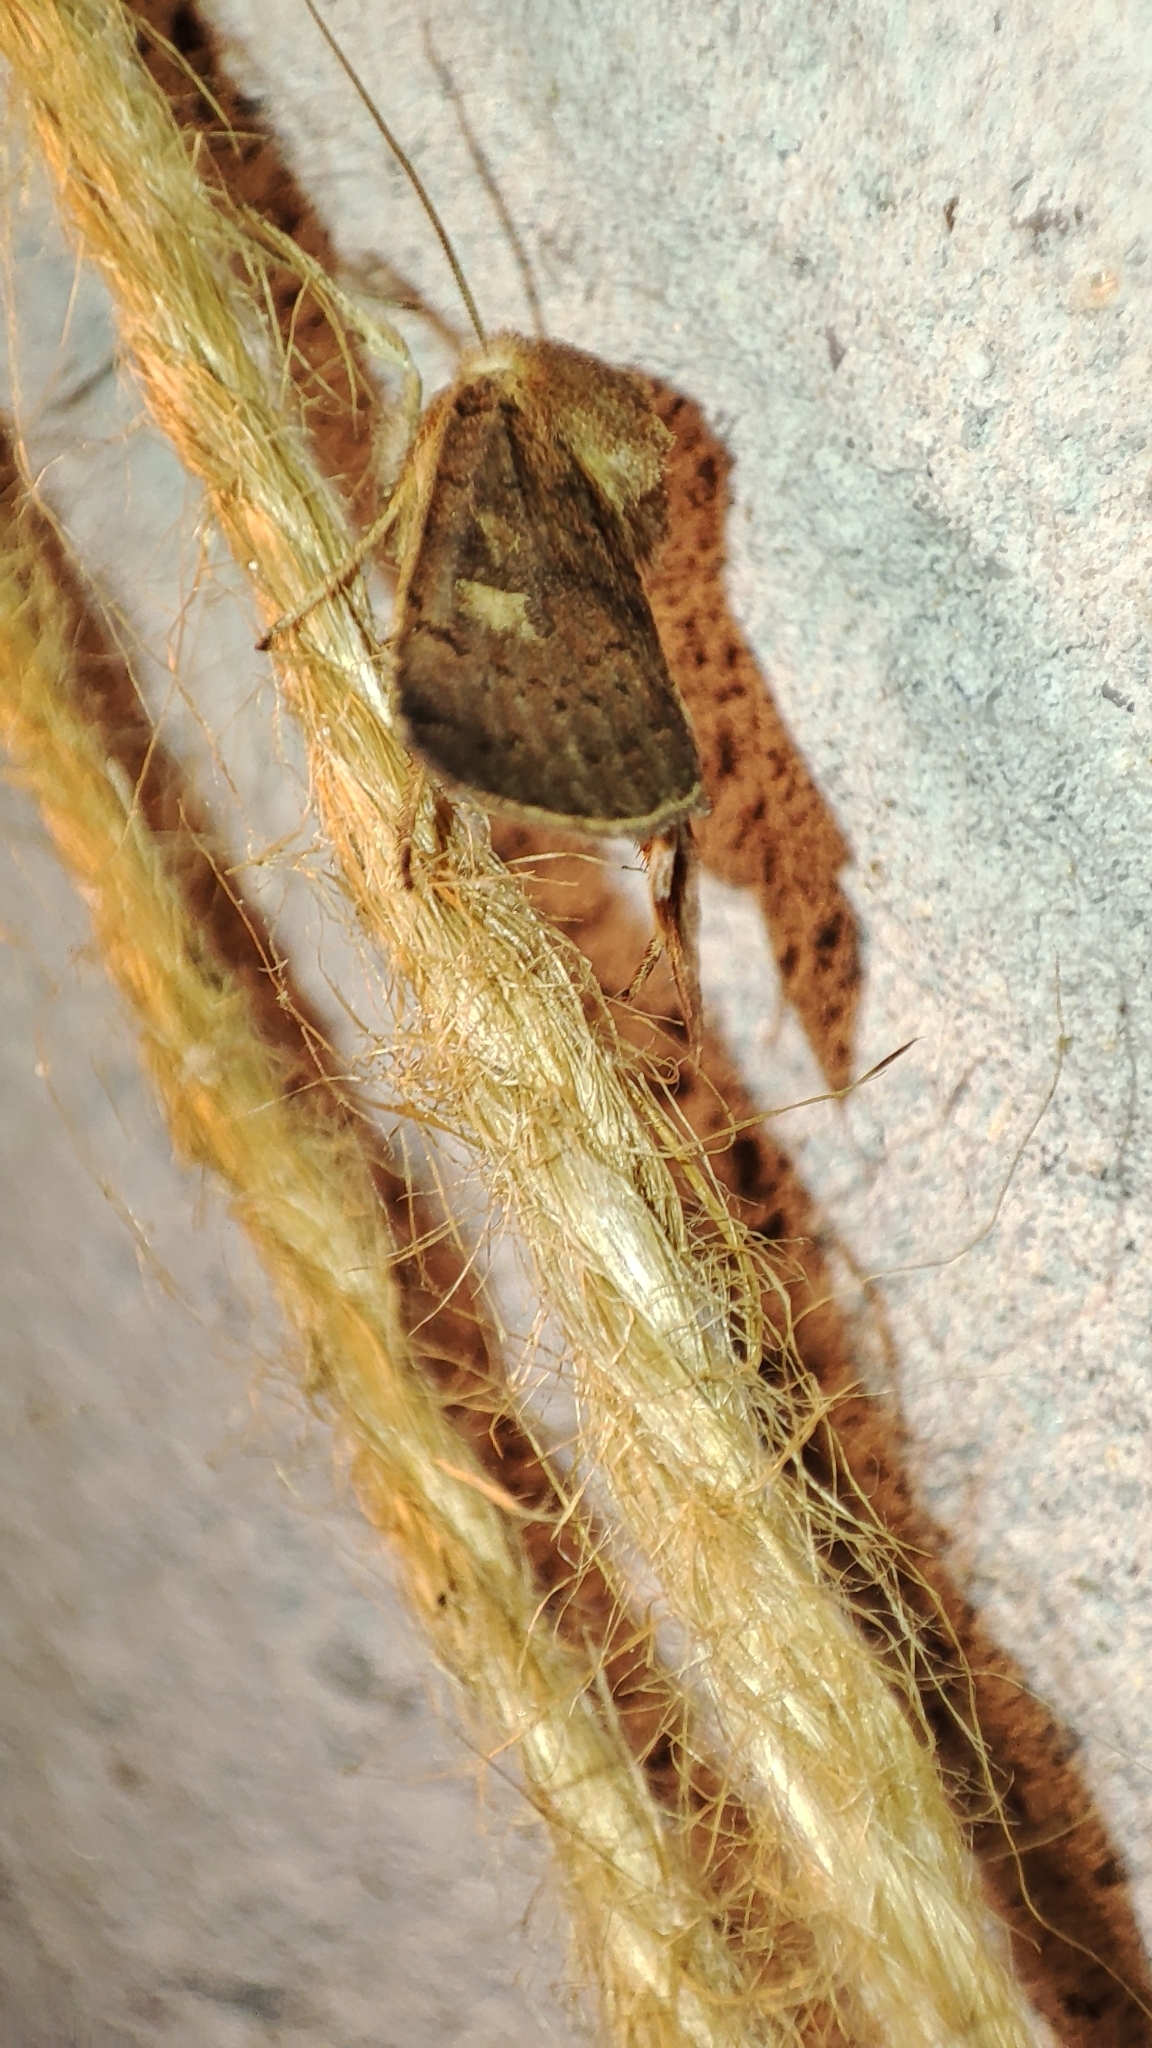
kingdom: Animalia
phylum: Arthropoda
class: Insecta
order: Lepidoptera
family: Noctuidae
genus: Xestia
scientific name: Xestia xanthographa
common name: Square-spot rustic
